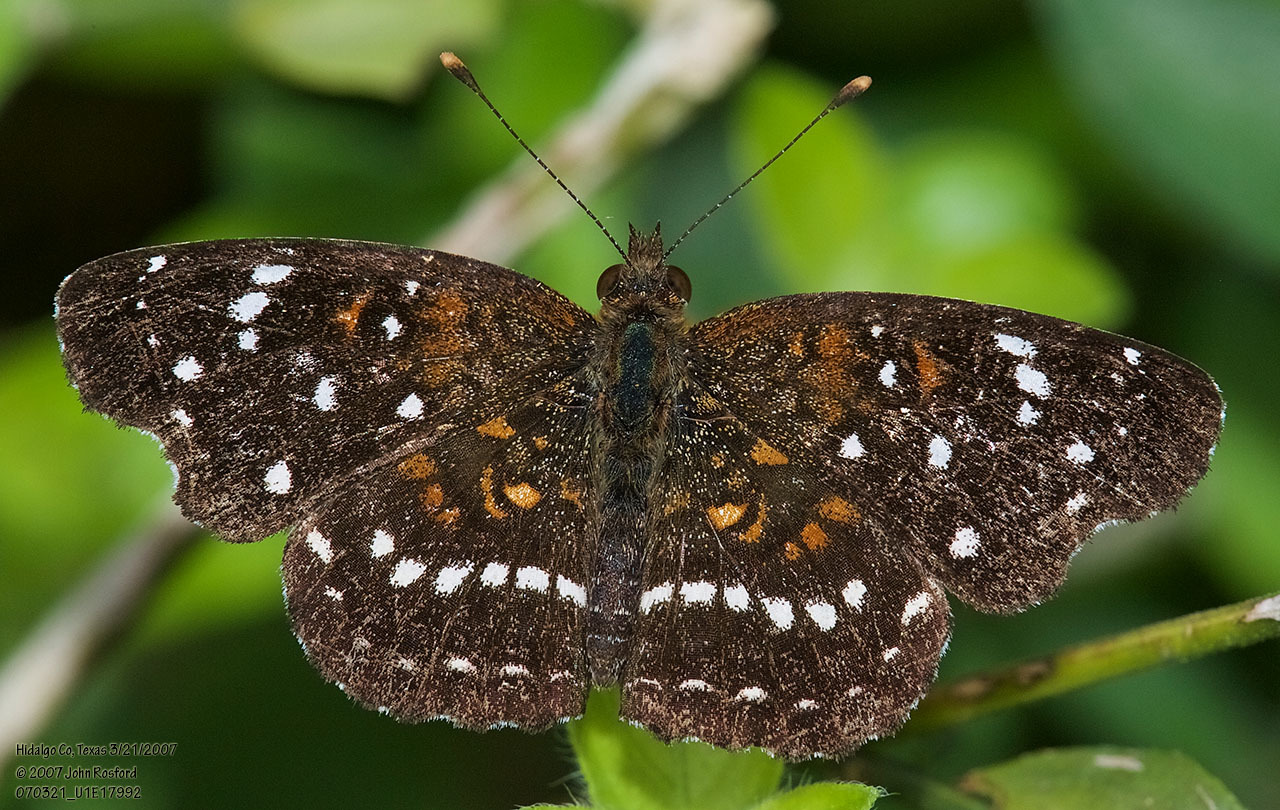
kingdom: Animalia
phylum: Arthropoda
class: Insecta
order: Lepidoptera
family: Nymphalidae
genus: Anthanassa
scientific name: Anthanassa texana
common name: Texan crescent
